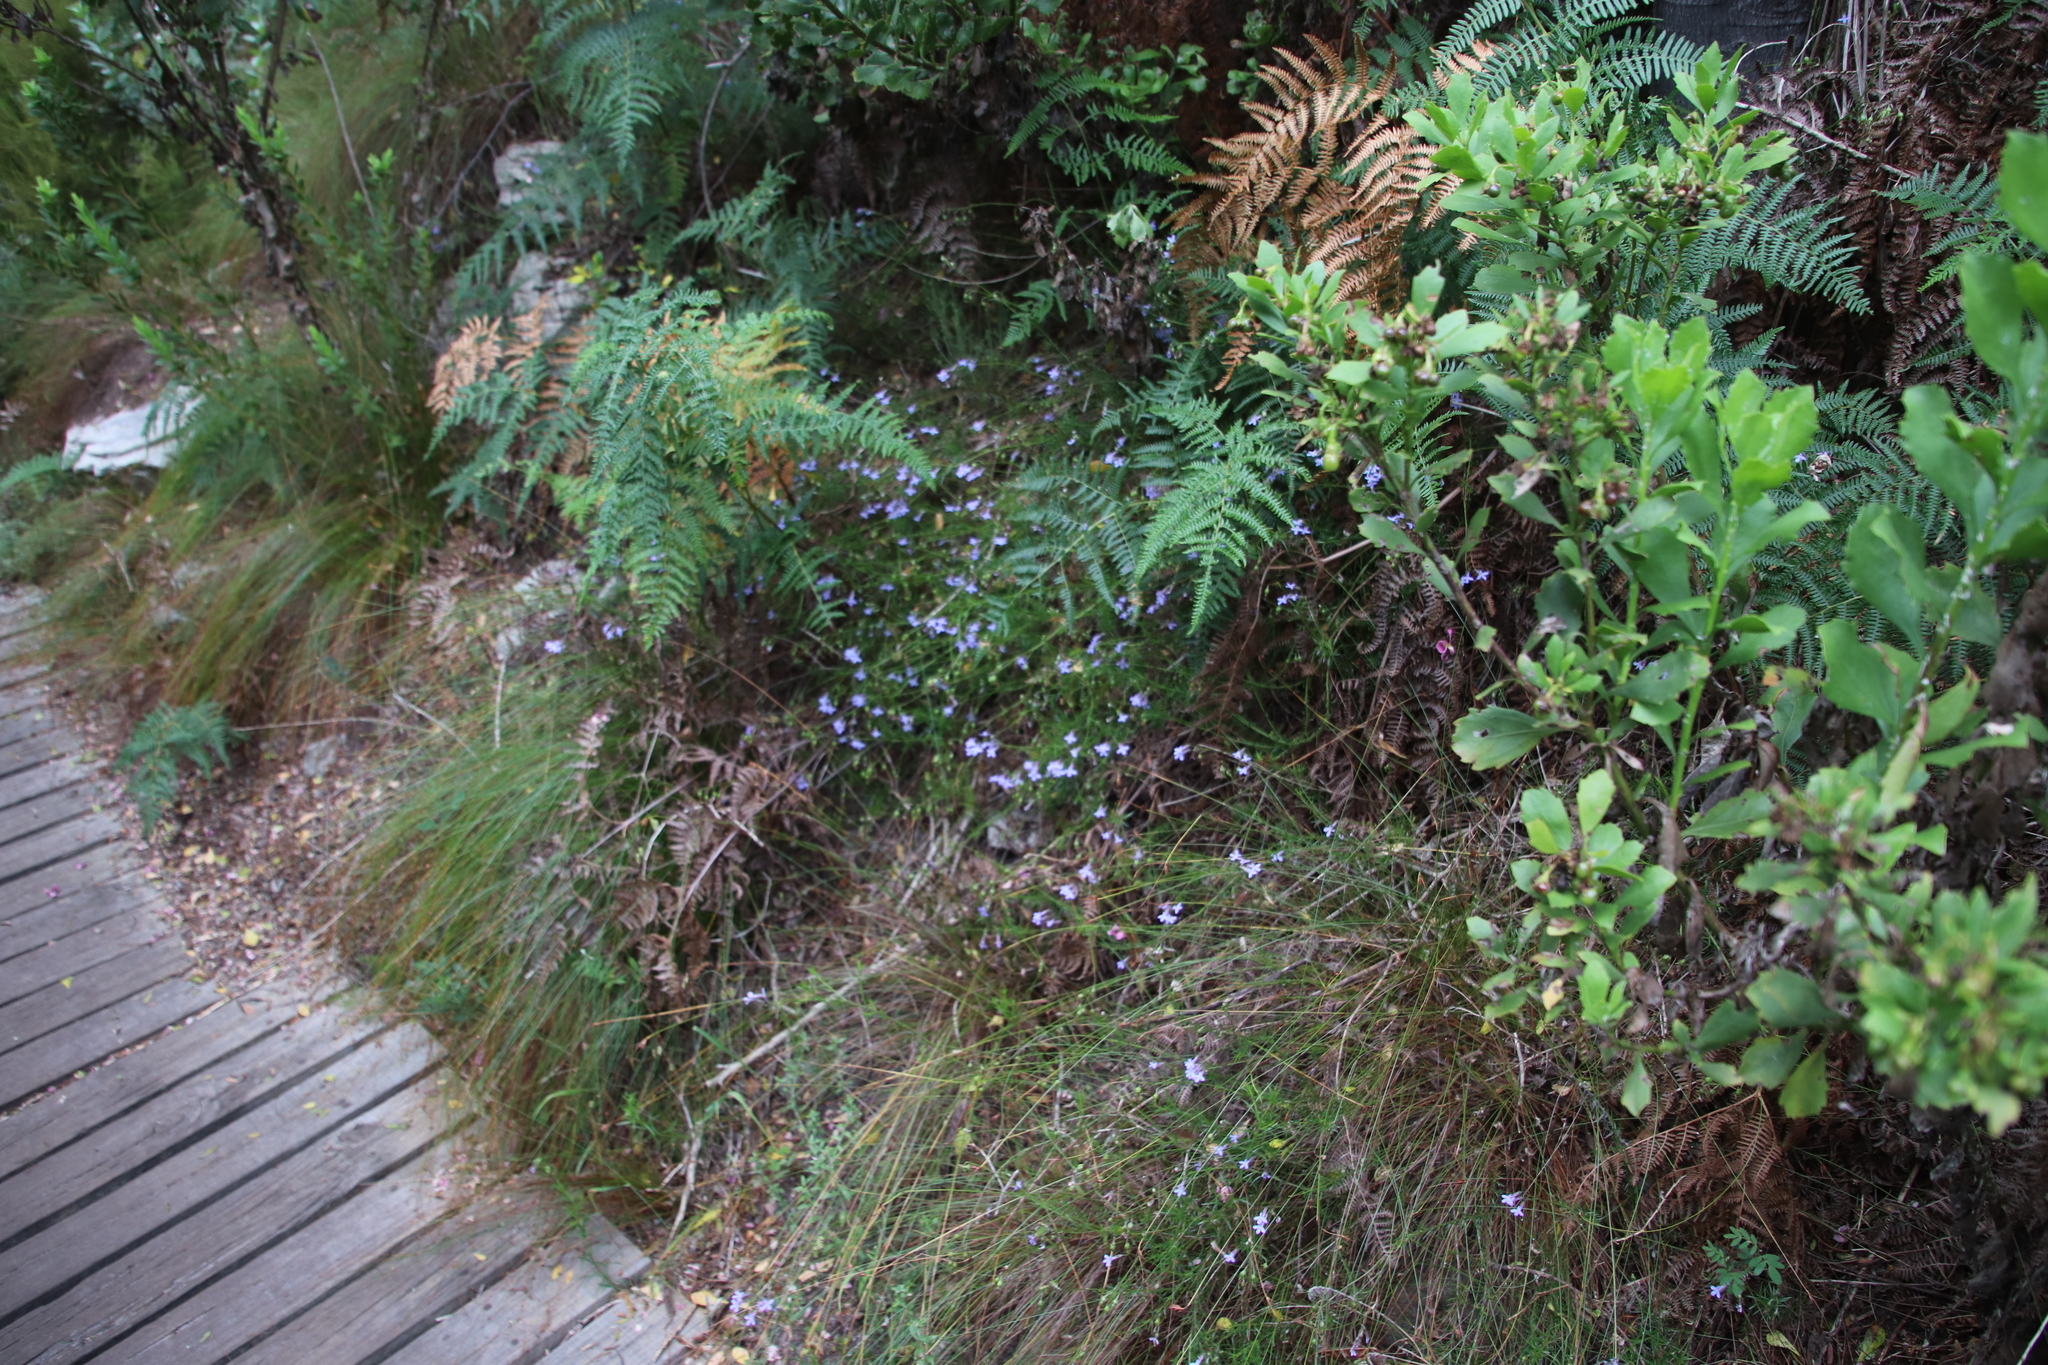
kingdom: Plantae
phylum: Tracheophyta
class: Magnoliopsida
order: Asterales
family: Campanulaceae
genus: Lobelia
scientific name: Lobelia pinifolia
